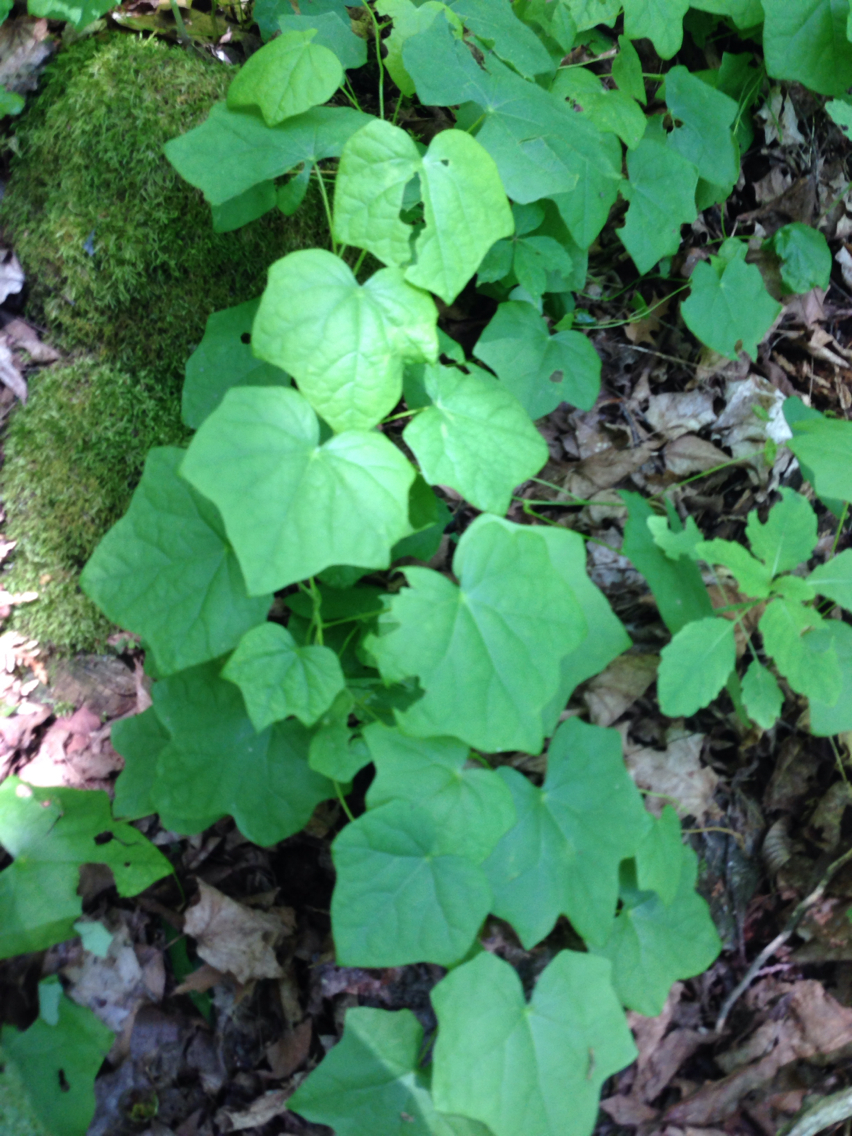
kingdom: Plantae
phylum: Tracheophyta
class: Magnoliopsida
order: Ranunculales
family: Menispermaceae
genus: Menispermum
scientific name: Menispermum canadense
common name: Moonseed
